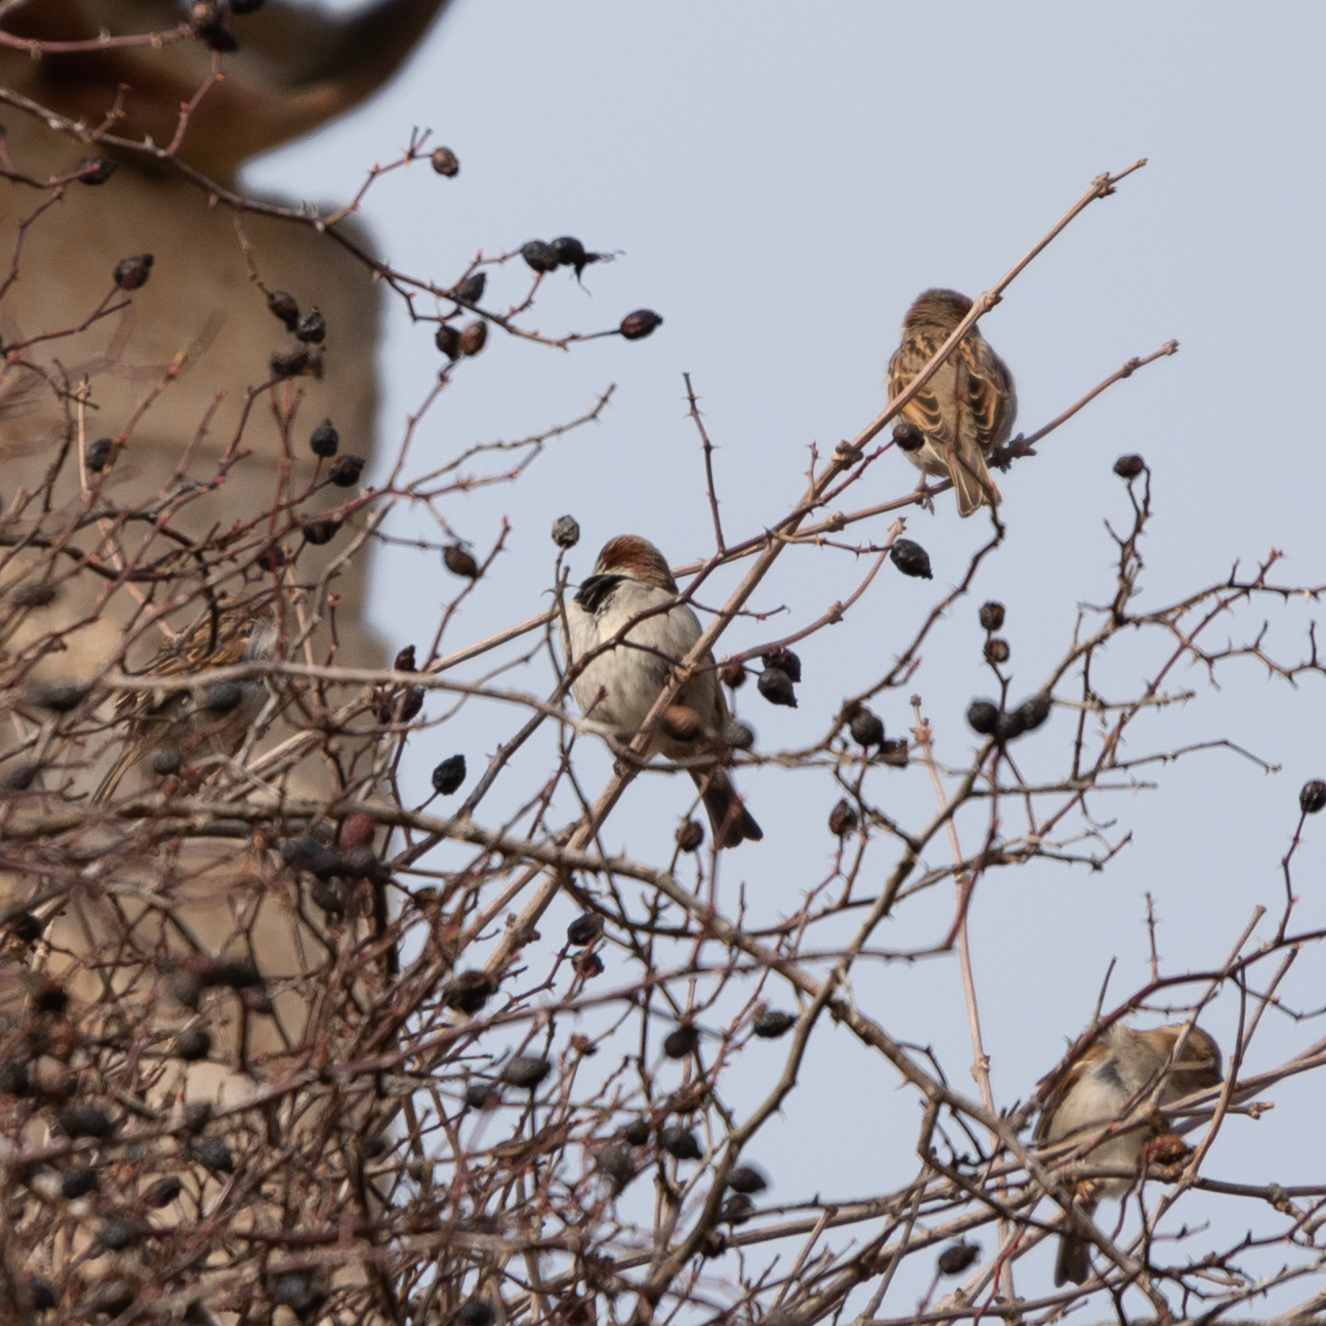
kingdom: Animalia
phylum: Chordata
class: Aves
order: Passeriformes
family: Passeridae
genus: Passer
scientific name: Passer domesticus
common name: House sparrow
